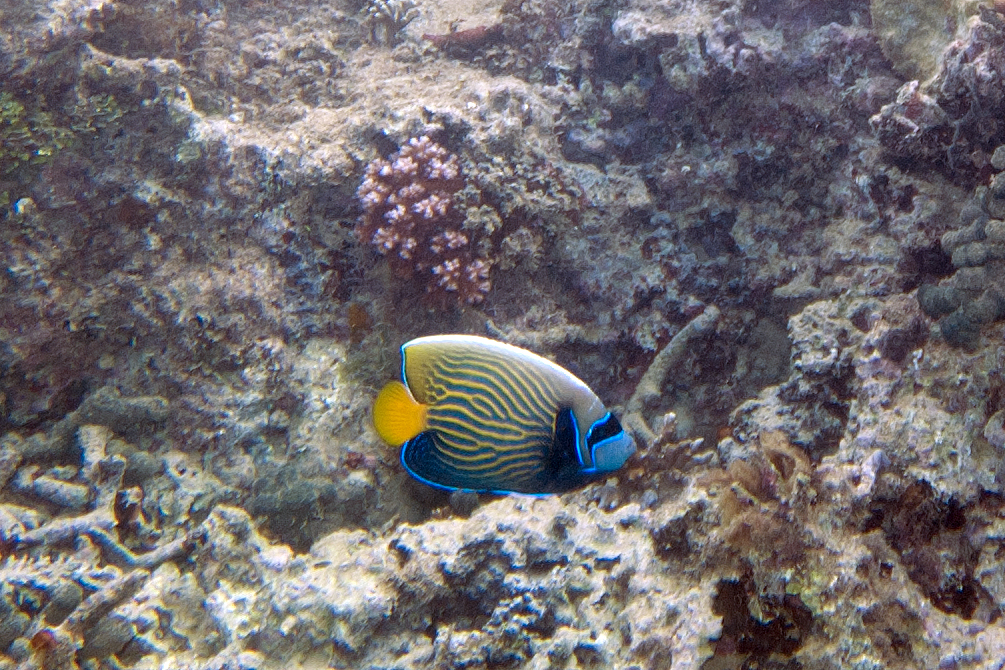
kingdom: Animalia
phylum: Chordata
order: Perciformes
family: Pomacanthidae
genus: Pomacanthus
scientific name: Pomacanthus imperator
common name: Emperor angelfish
